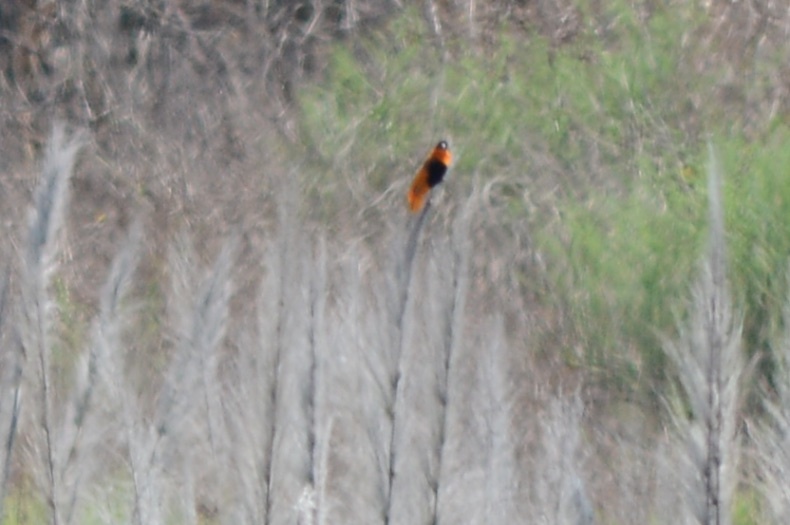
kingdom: Animalia
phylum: Chordata
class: Aves
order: Passeriformes
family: Ploceidae
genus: Euplectes
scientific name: Euplectes franciscanus
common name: Northern red bishop
